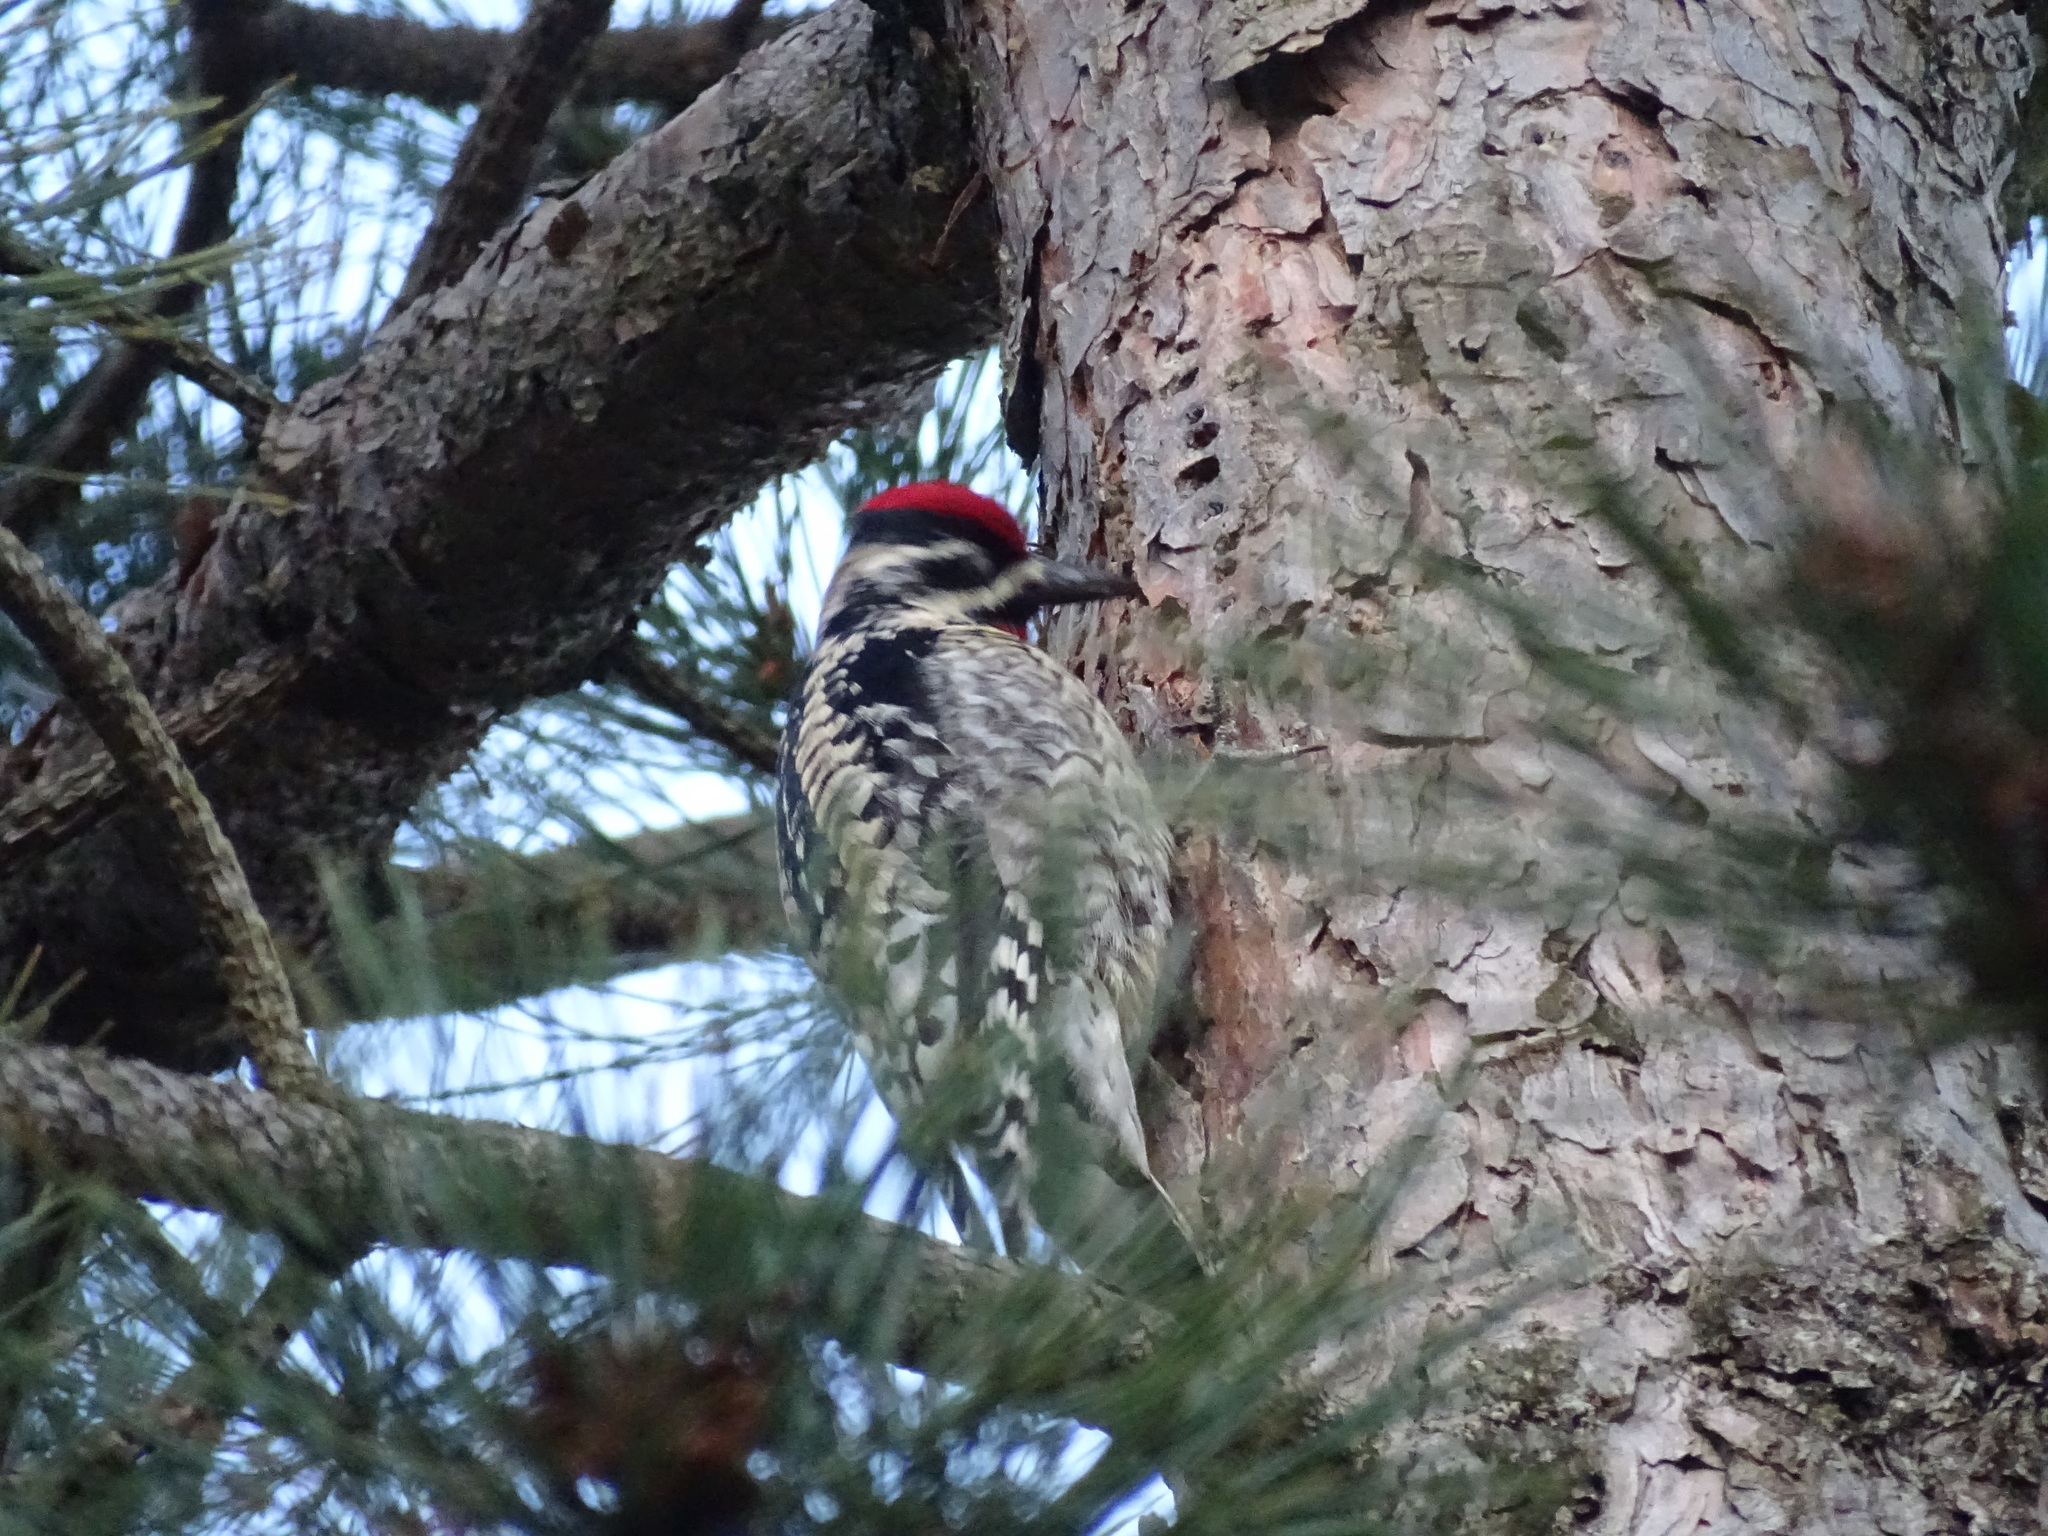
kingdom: Animalia
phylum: Chordata
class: Aves
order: Piciformes
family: Picidae
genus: Sphyrapicus
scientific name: Sphyrapicus varius
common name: Yellow-bellied sapsucker
